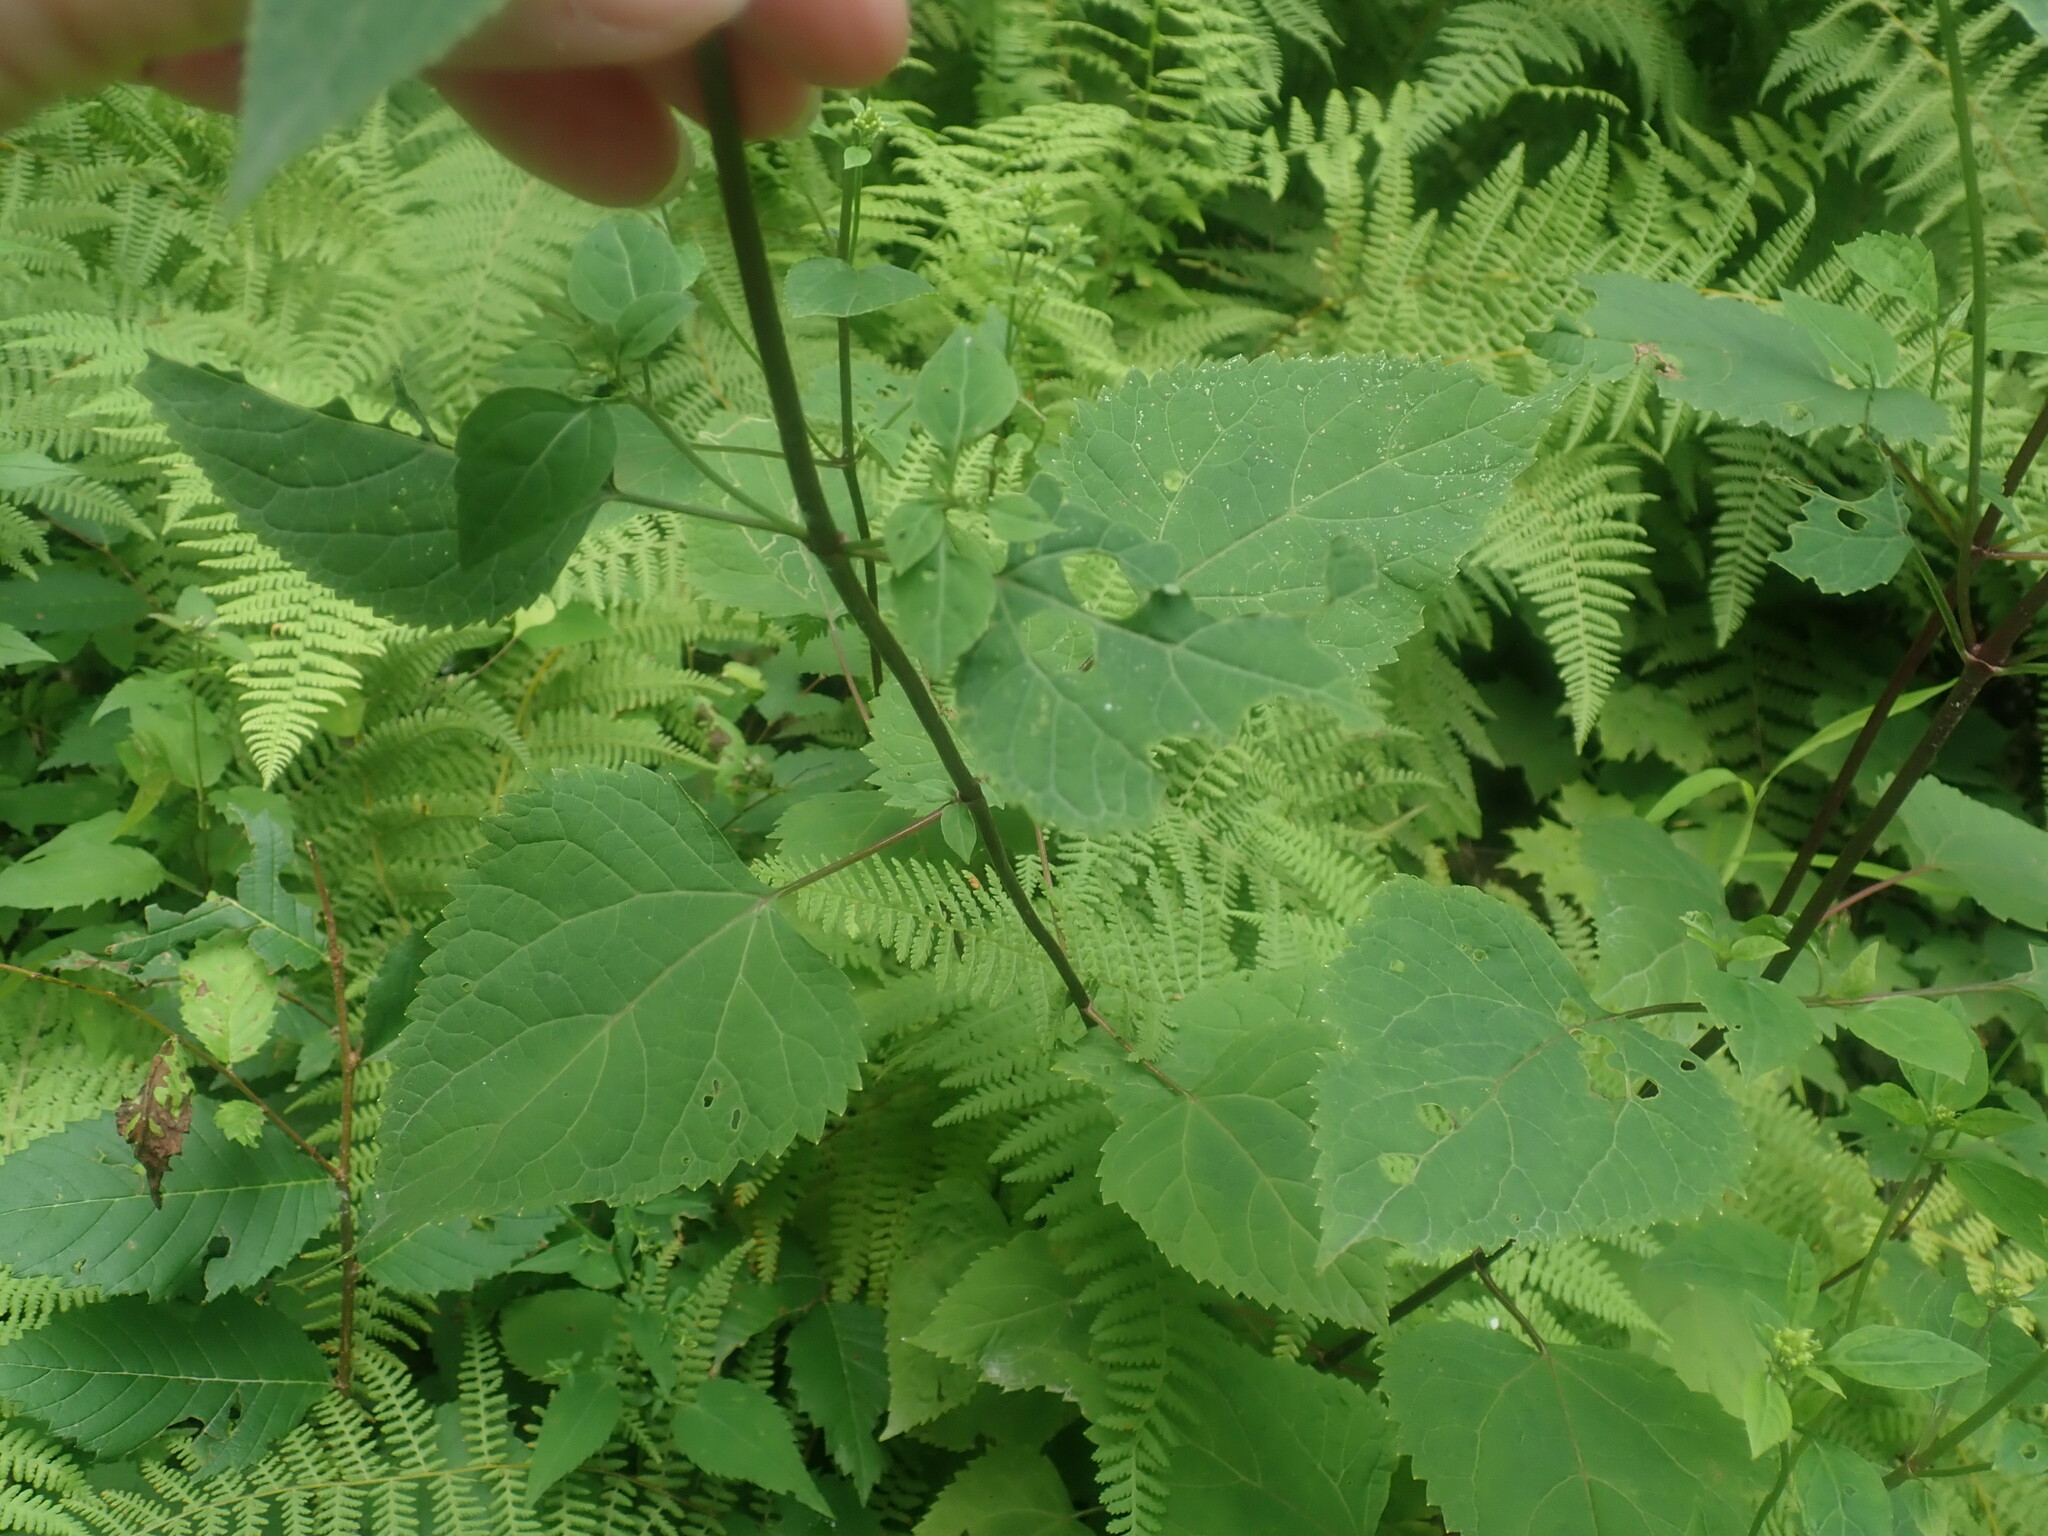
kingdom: Plantae
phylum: Tracheophyta
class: Magnoliopsida
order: Asterales
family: Asteraceae
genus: Ageratina
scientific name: Ageratina altissima
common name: White snakeroot
